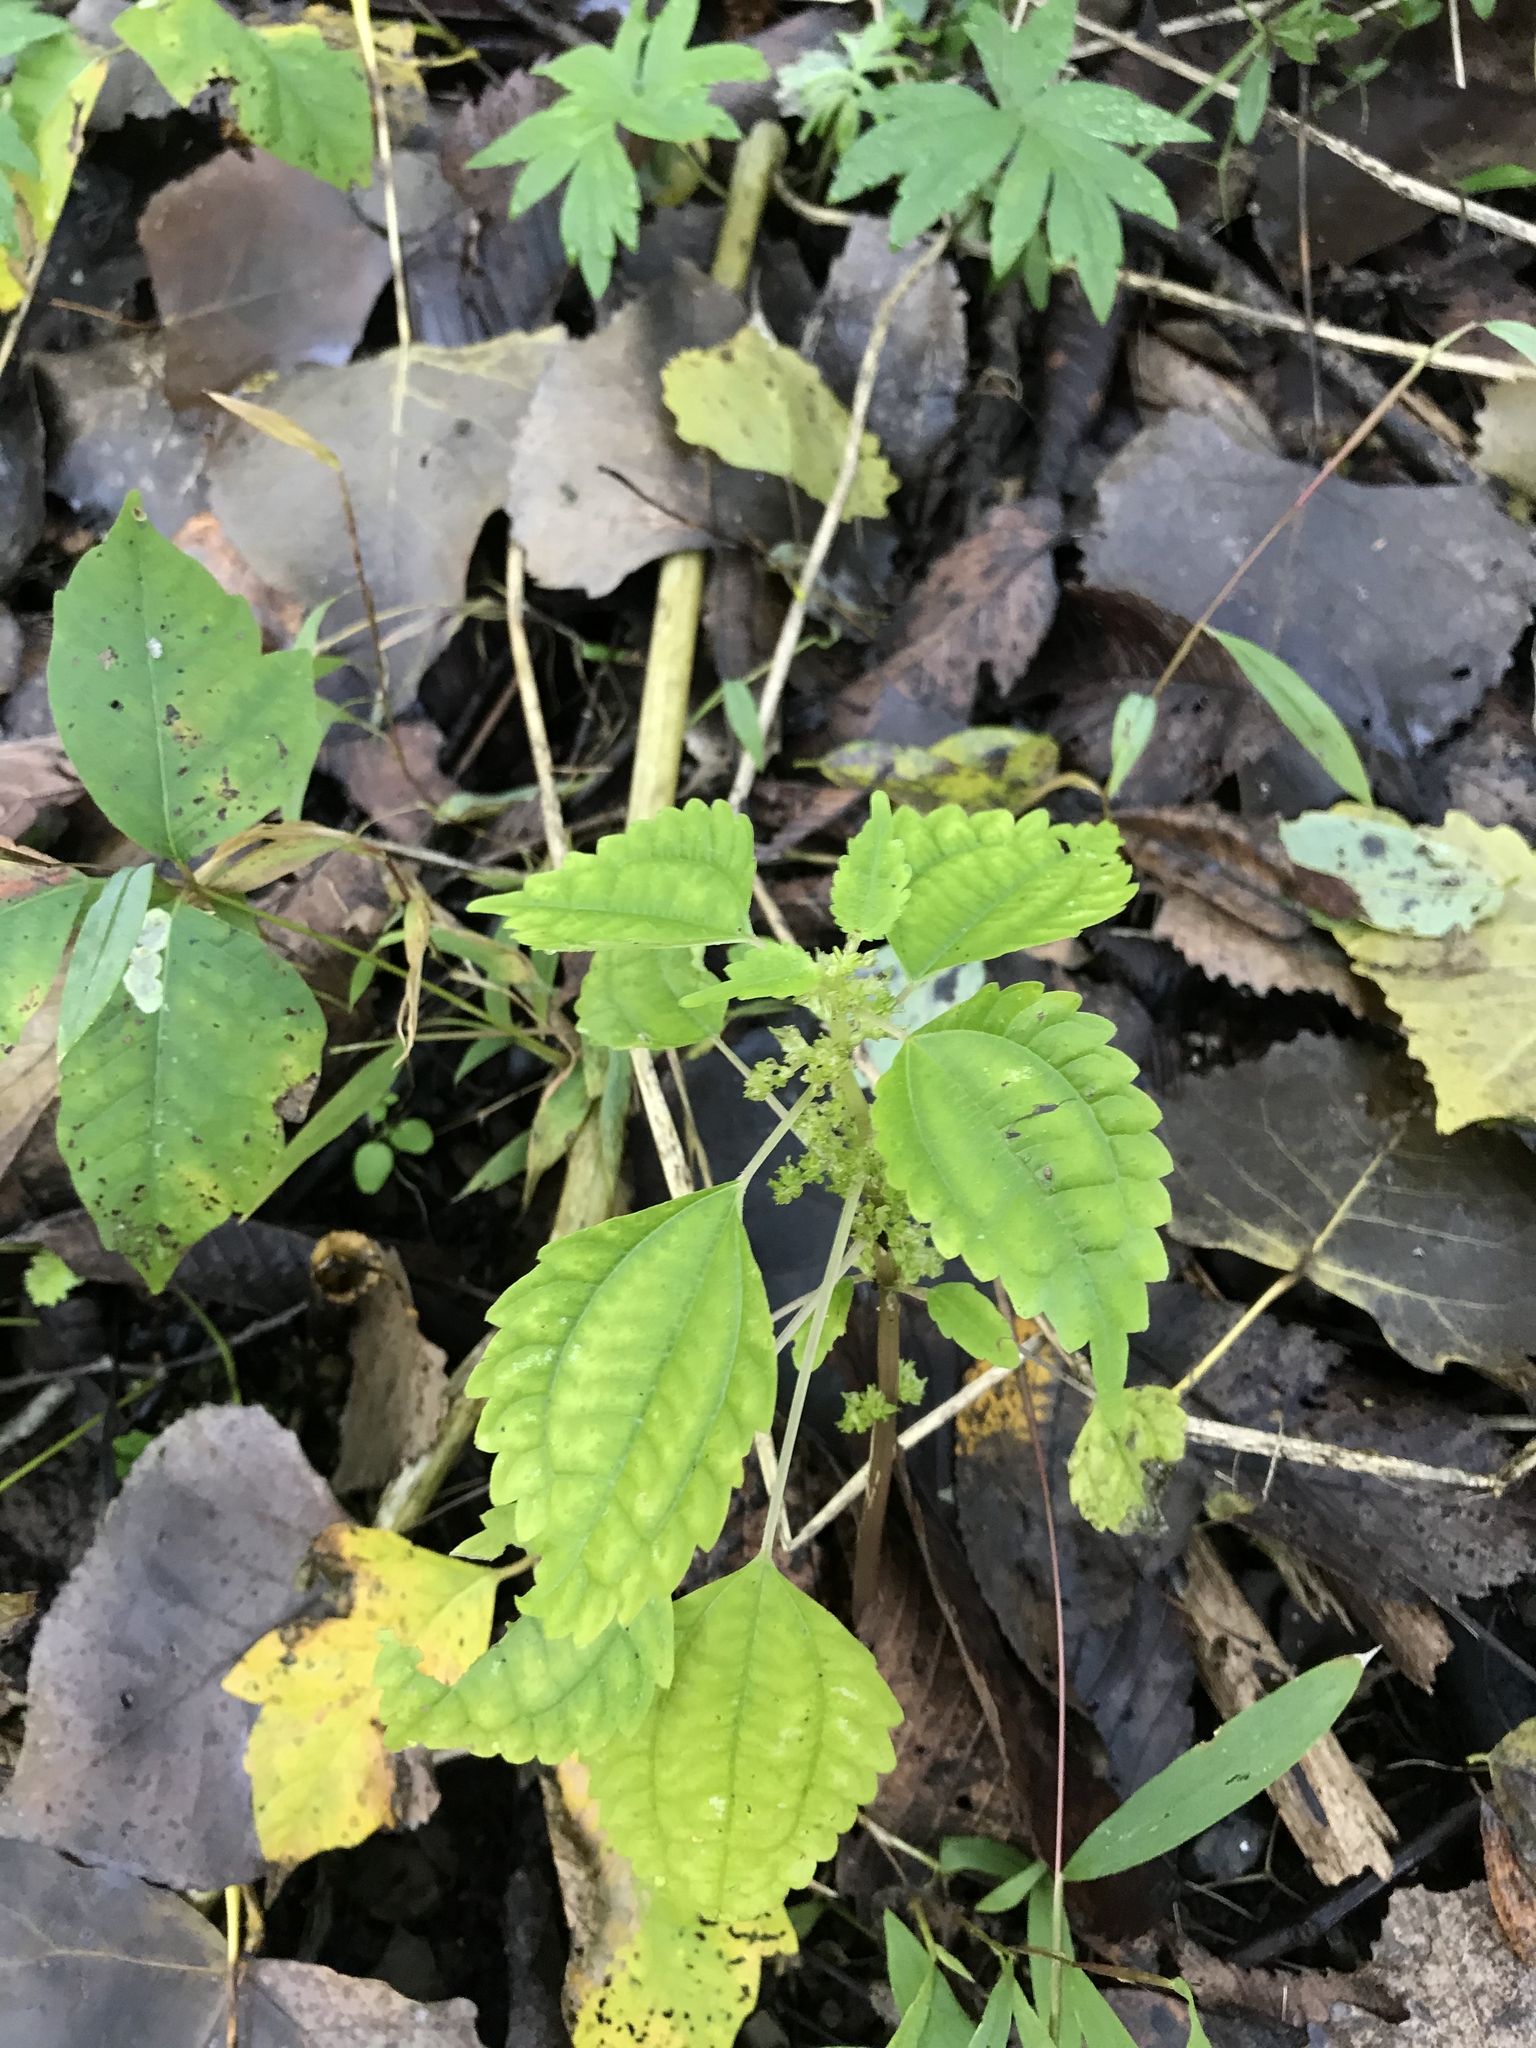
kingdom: Plantae
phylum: Tracheophyta
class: Magnoliopsida
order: Rosales
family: Urticaceae
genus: Pilea
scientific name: Pilea pumila
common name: Clearweed
